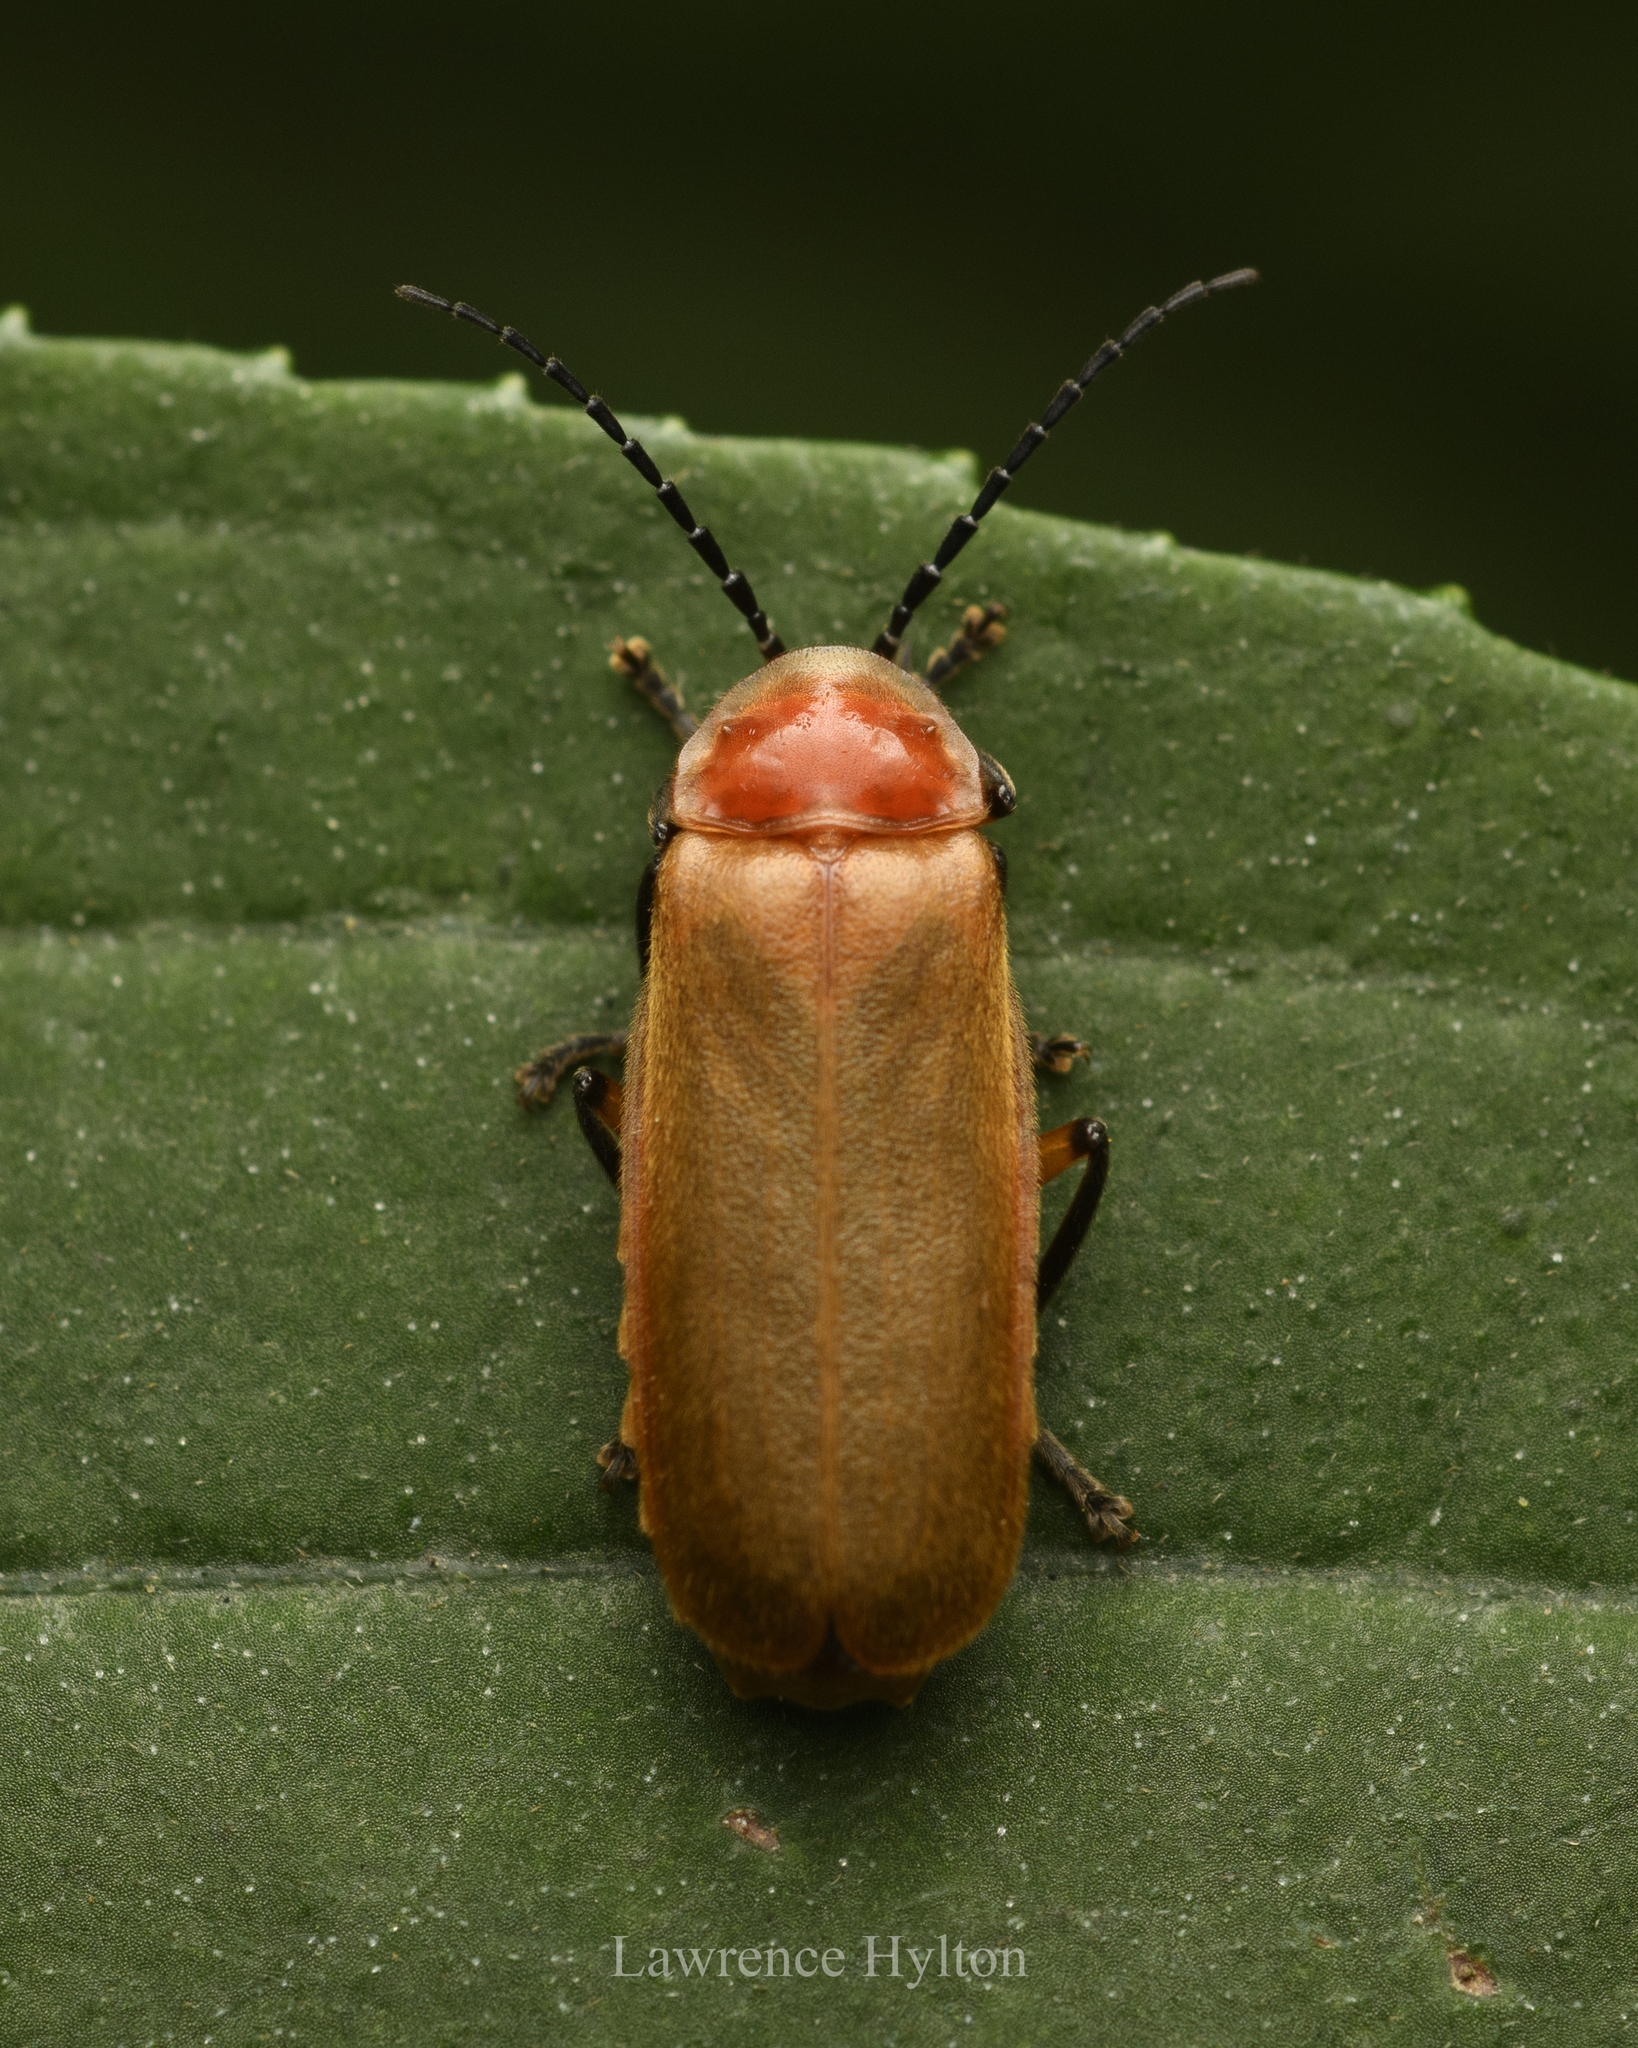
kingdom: Animalia
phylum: Arthropoda
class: Insecta
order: Coleoptera
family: Cantharidae
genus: Macrosilis
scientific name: Macrosilis
